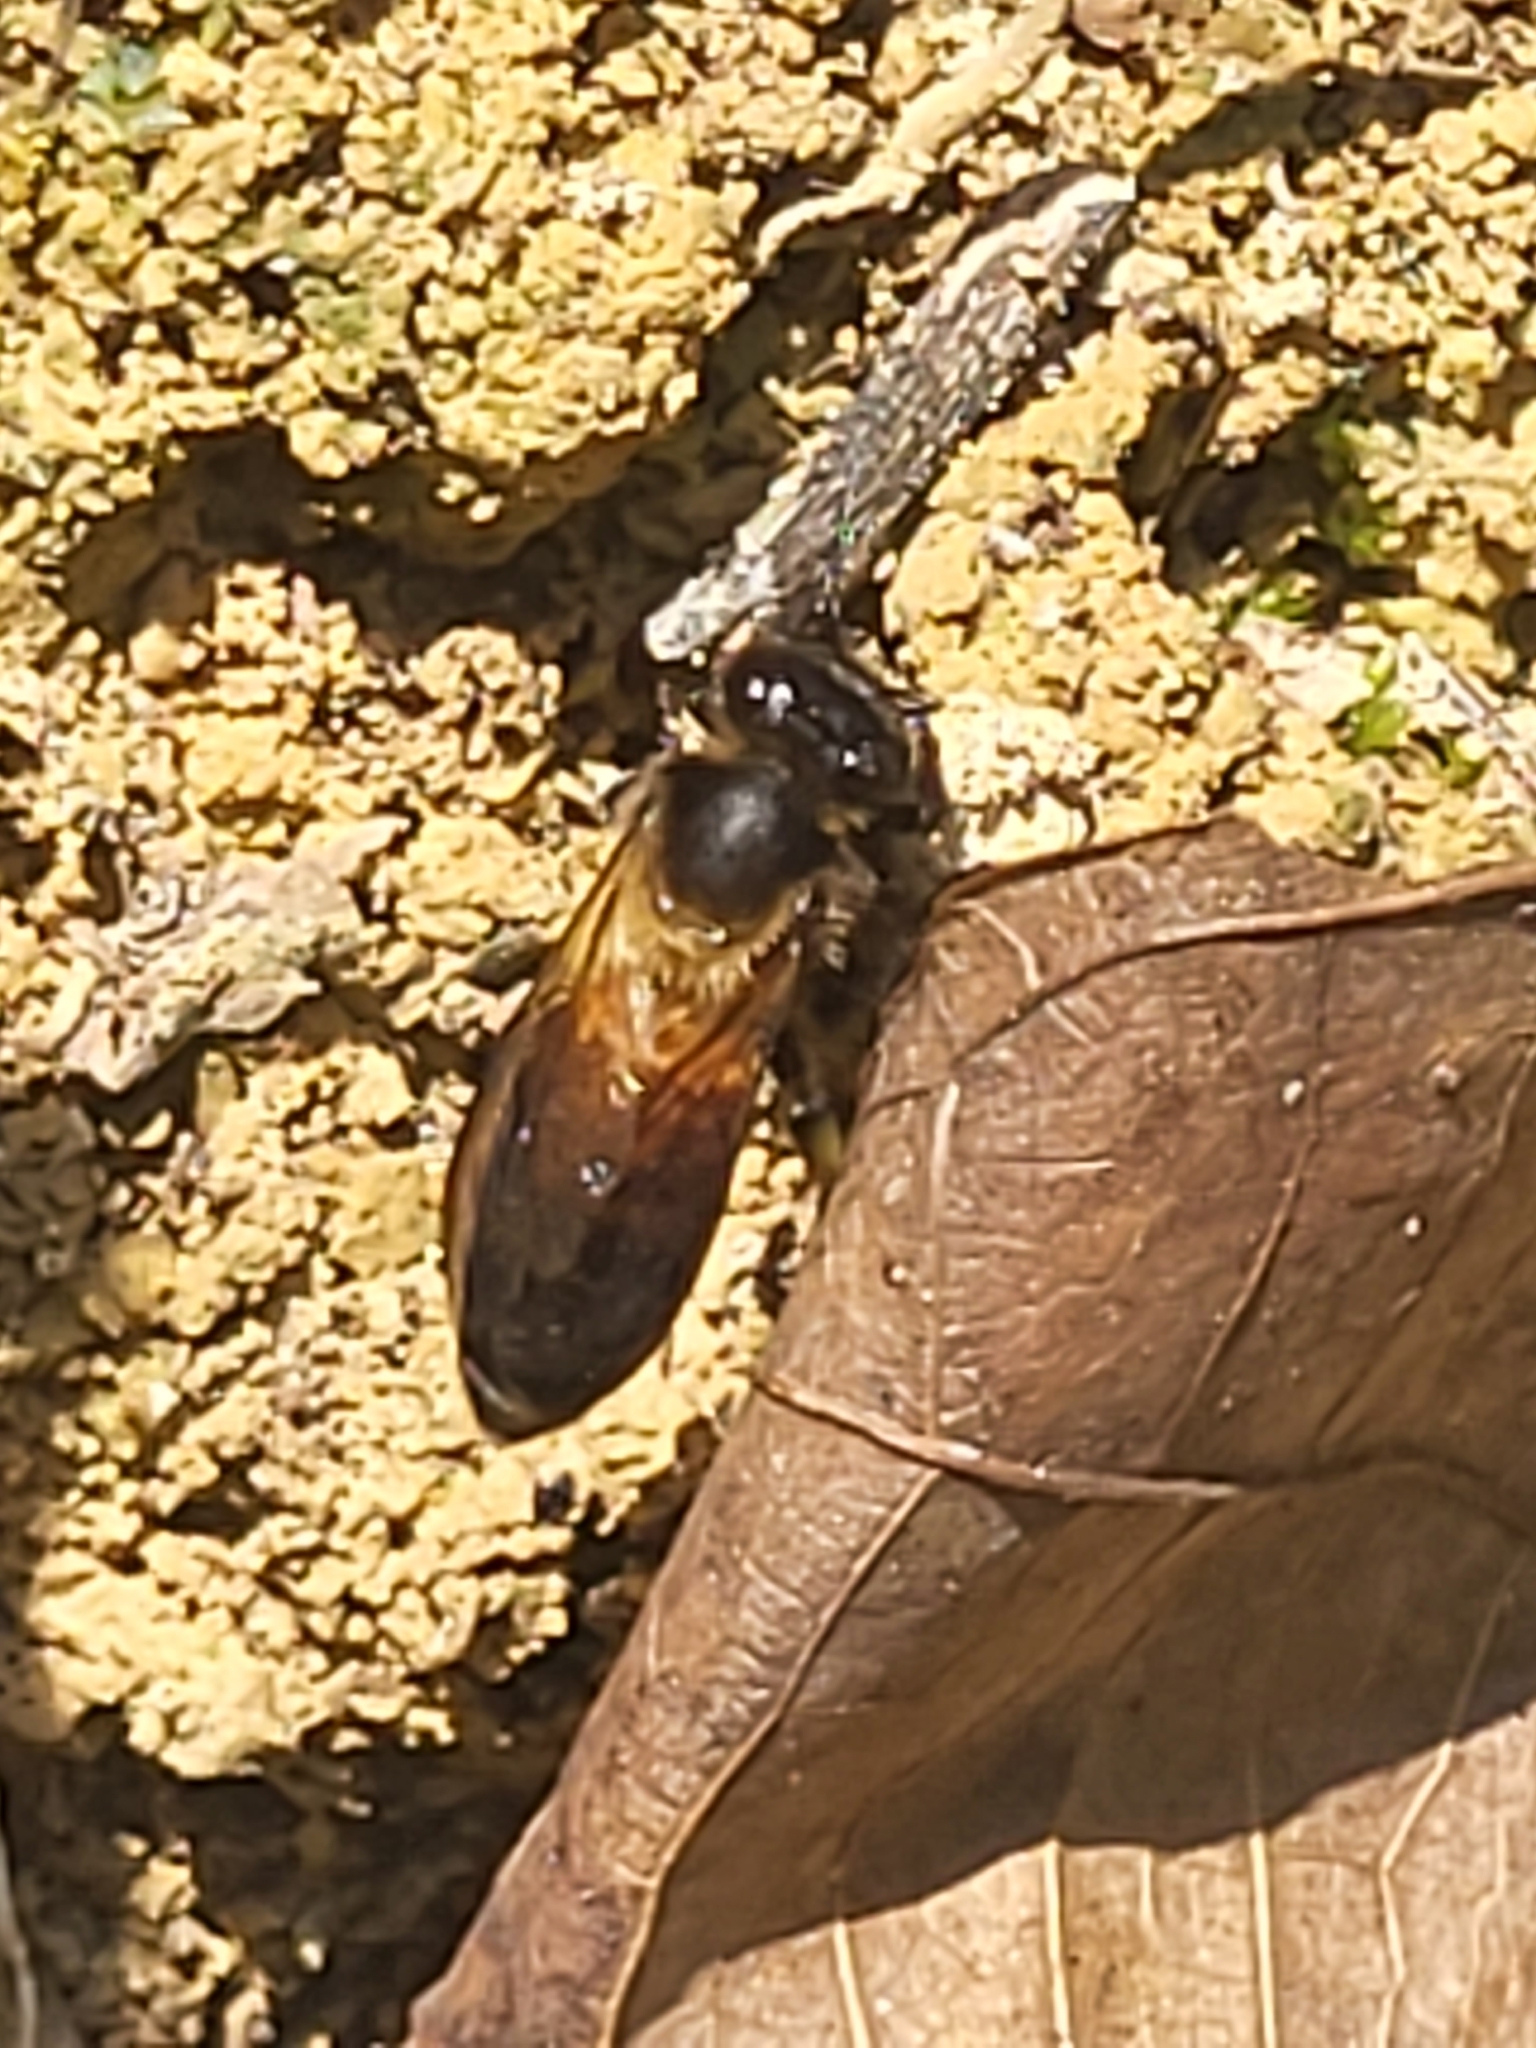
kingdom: Animalia
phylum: Arthropoda
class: Insecta
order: Hymenoptera
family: Apidae
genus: Apis
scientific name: Apis dorsata
